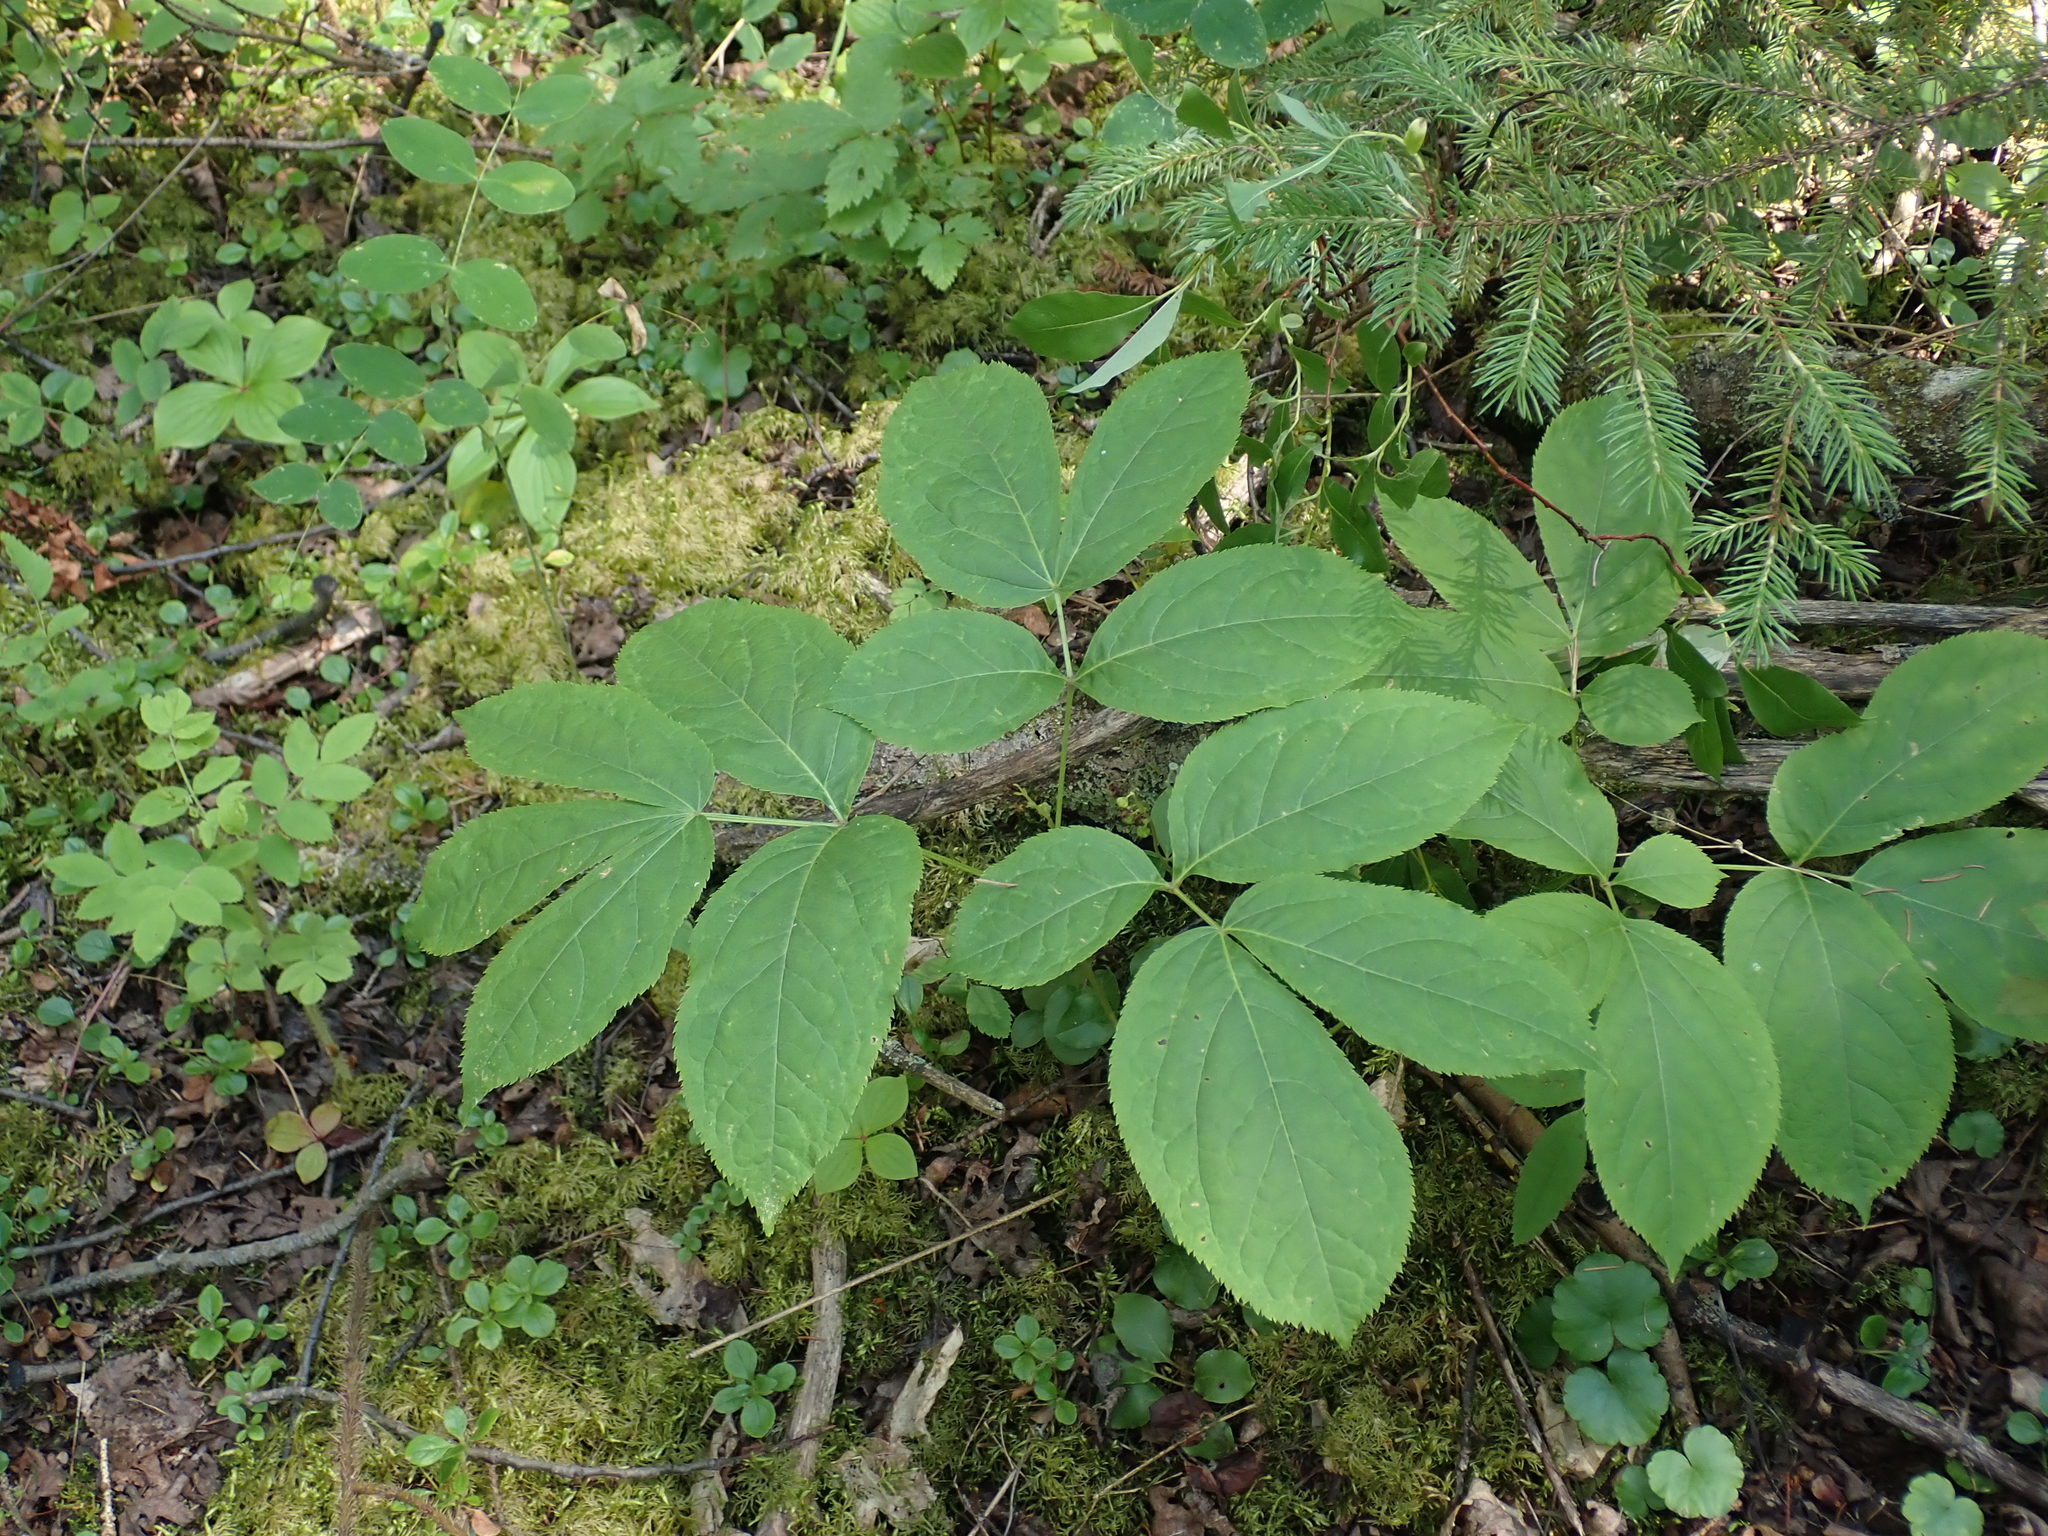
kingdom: Plantae
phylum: Tracheophyta
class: Magnoliopsida
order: Apiales
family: Araliaceae
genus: Aralia
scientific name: Aralia nudicaulis
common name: Wild sarsaparilla
